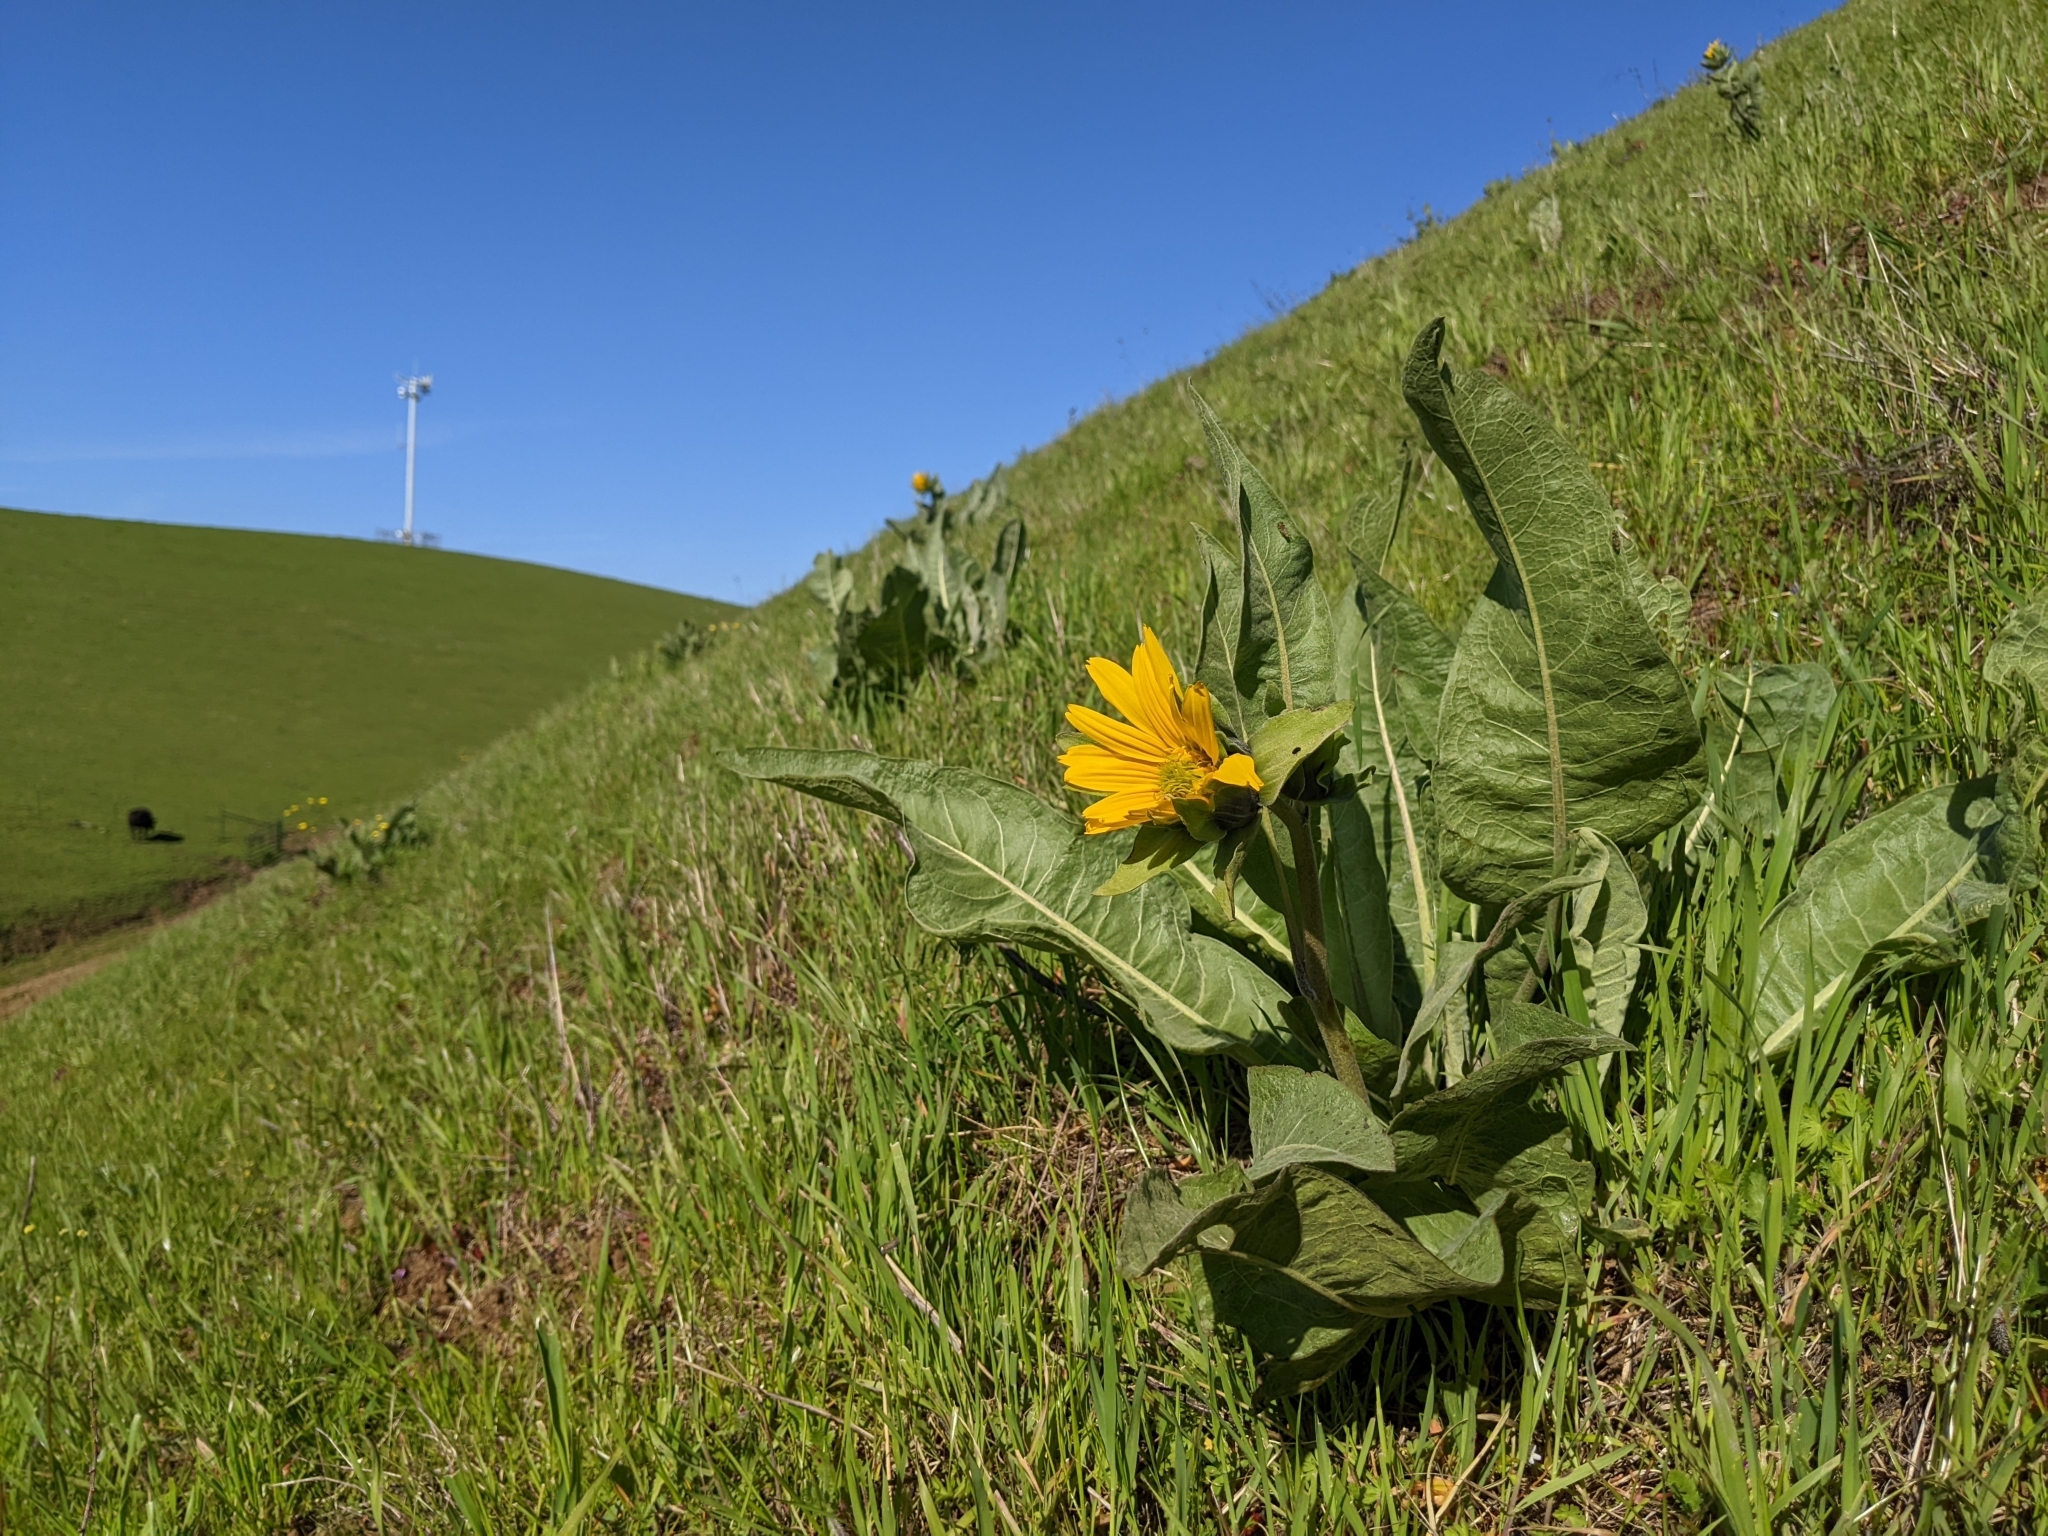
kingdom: Plantae
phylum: Tracheophyta
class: Magnoliopsida
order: Asterales
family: Asteraceae
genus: Wyethia
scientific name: Wyethia helenioides
